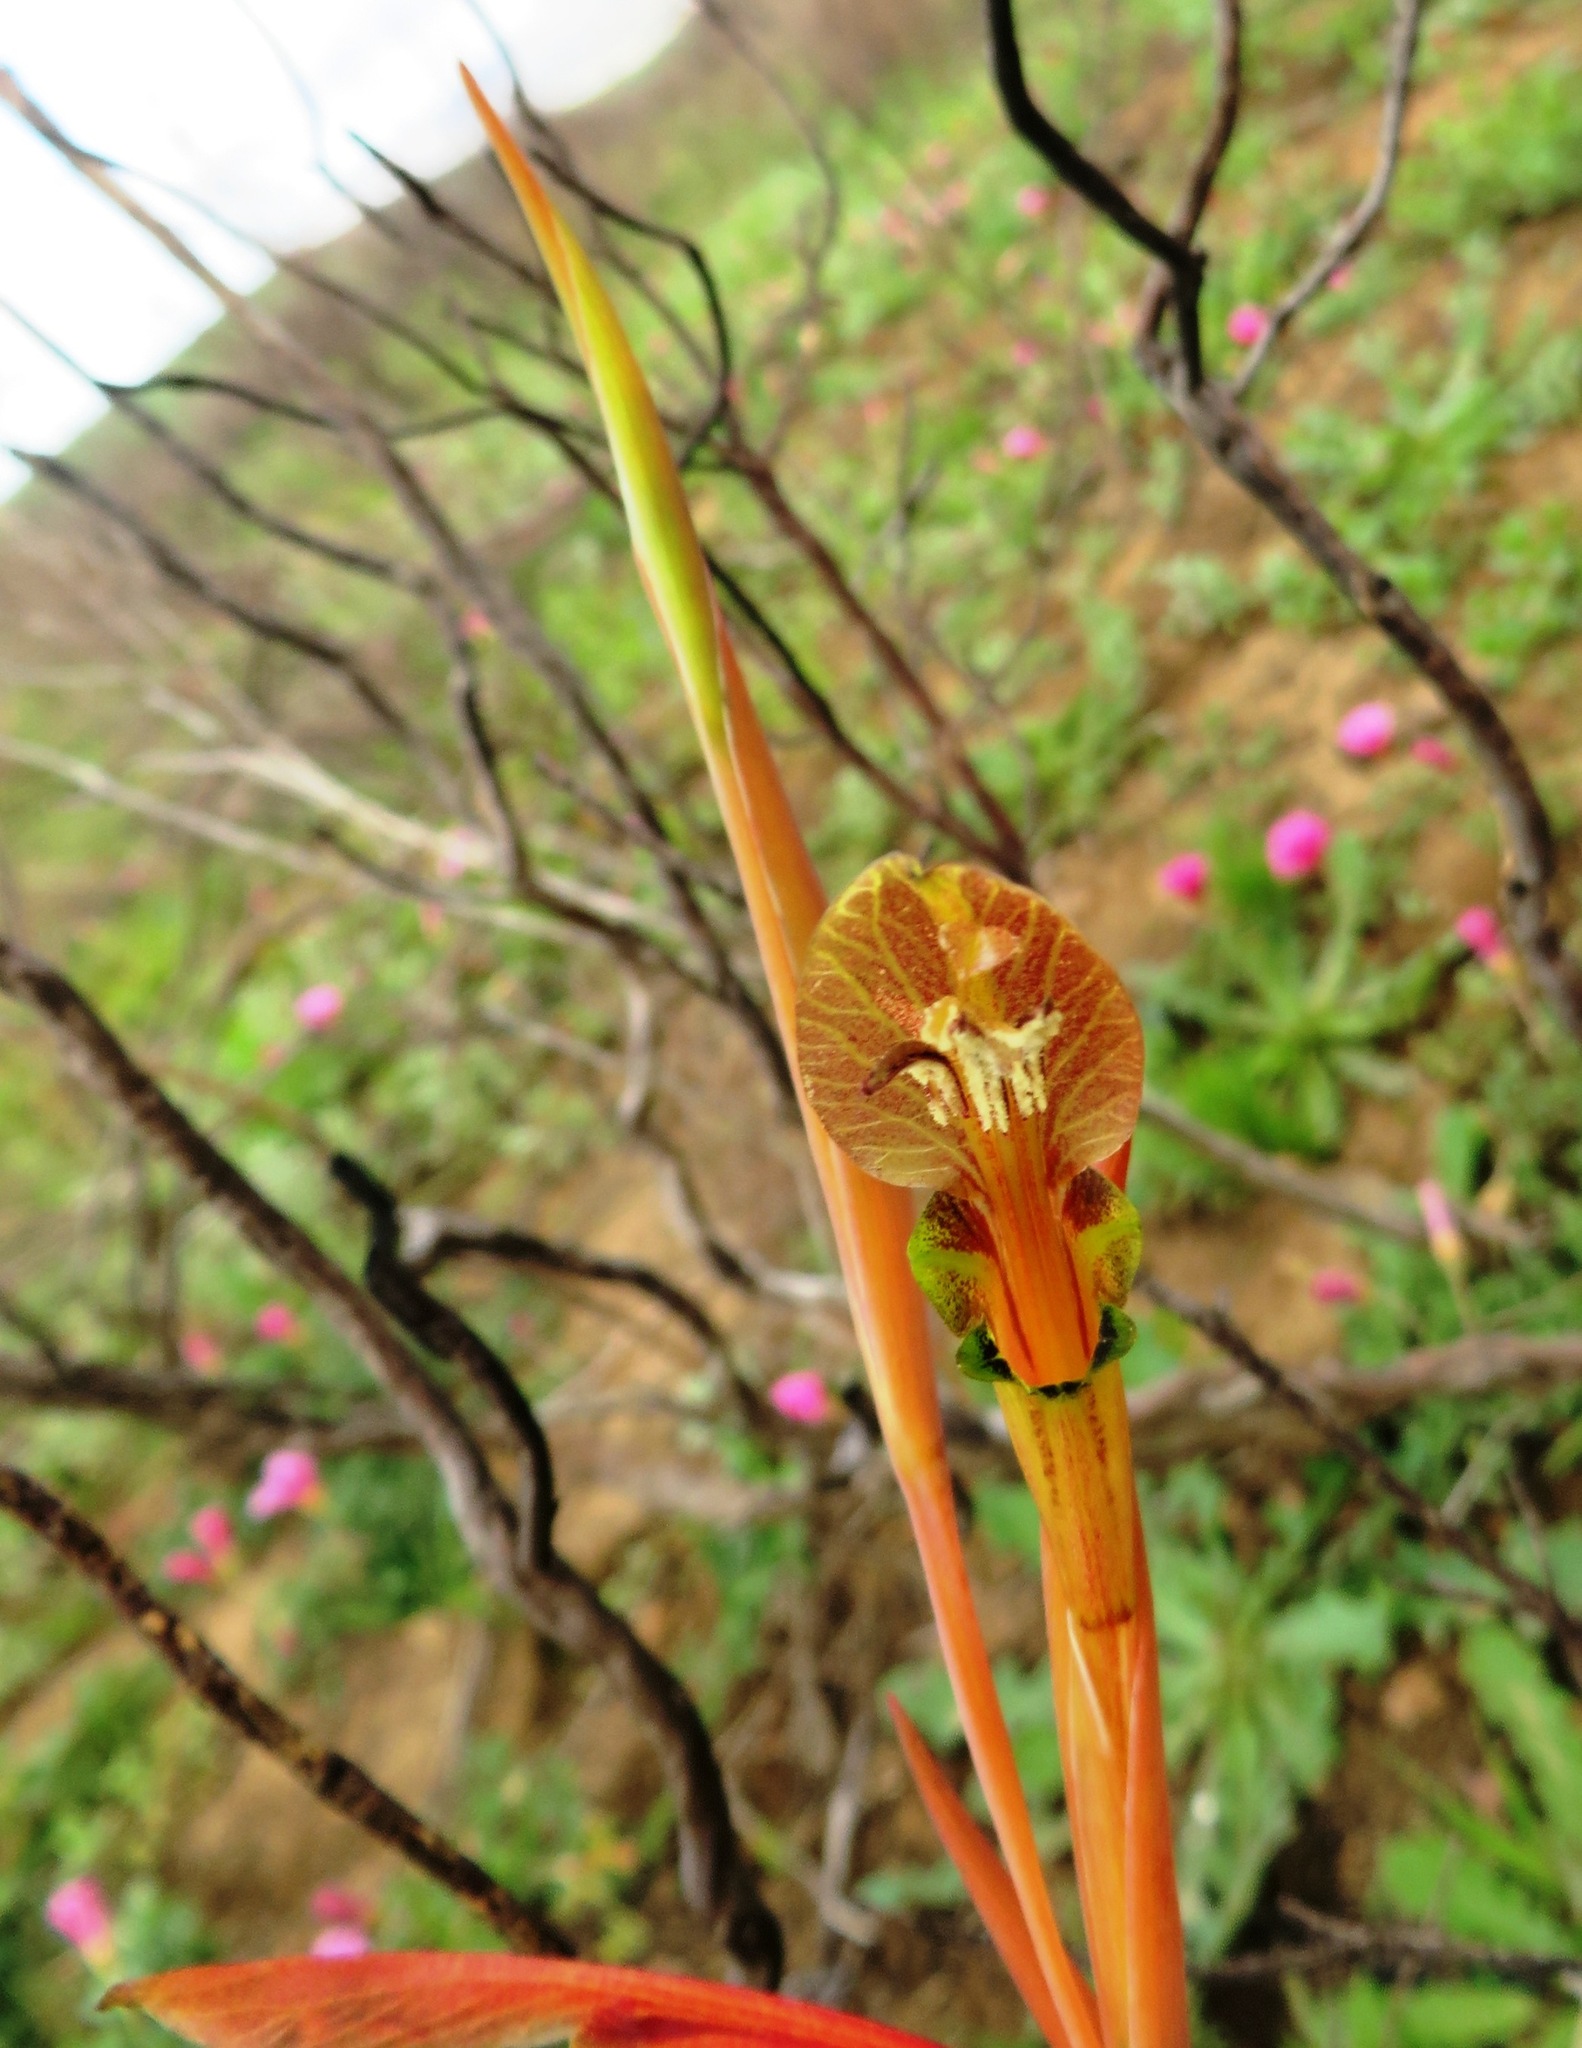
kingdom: Plantae
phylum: Tracheophyta
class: Liliopsida
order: Asparagales
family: Iridaceae
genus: Gladiolus
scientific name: Gladiolus abbreviatus
